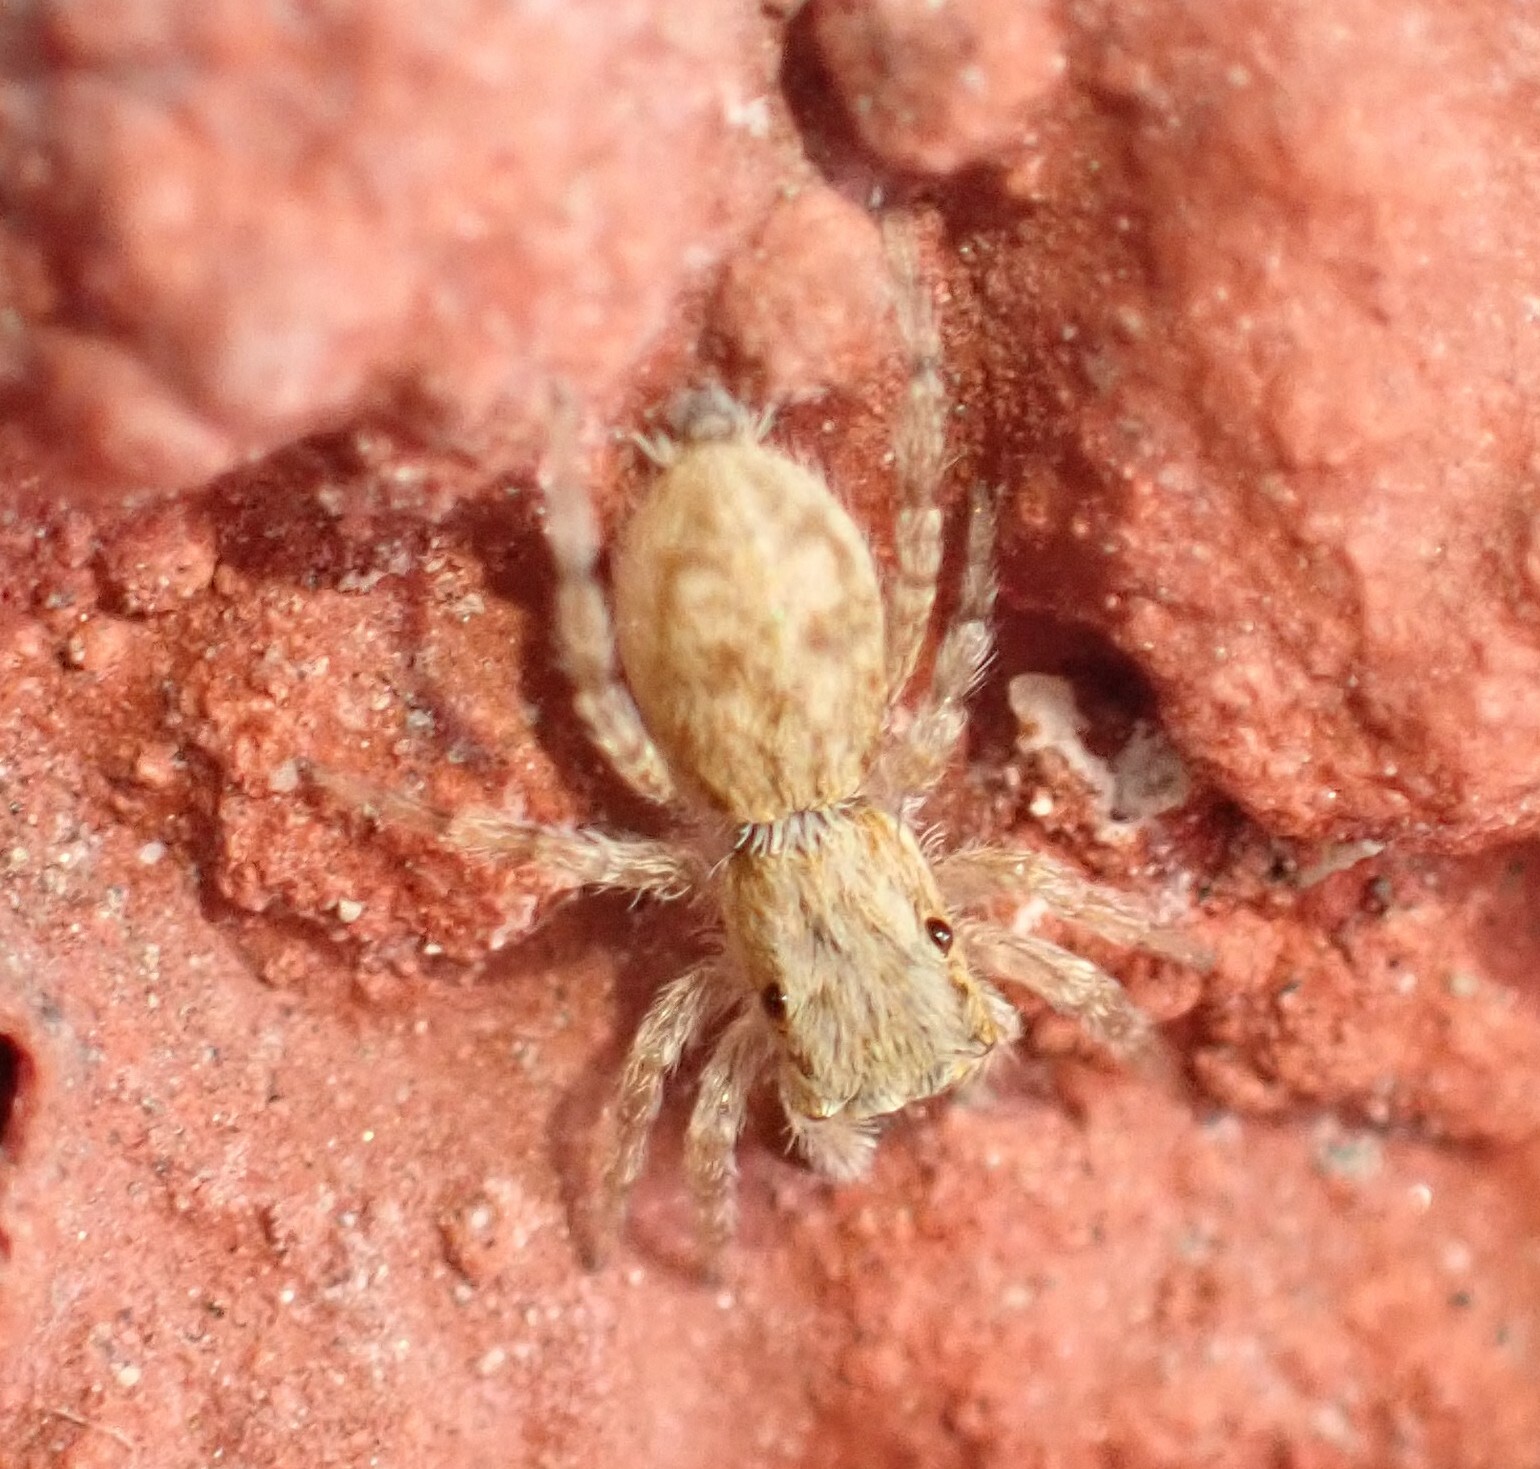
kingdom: Animalia
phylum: Arthropoda
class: Arachnida
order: Araneae
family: Salticidae
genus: Menemerus
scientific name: Menemerus bivittatus
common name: Gray wall jumper
